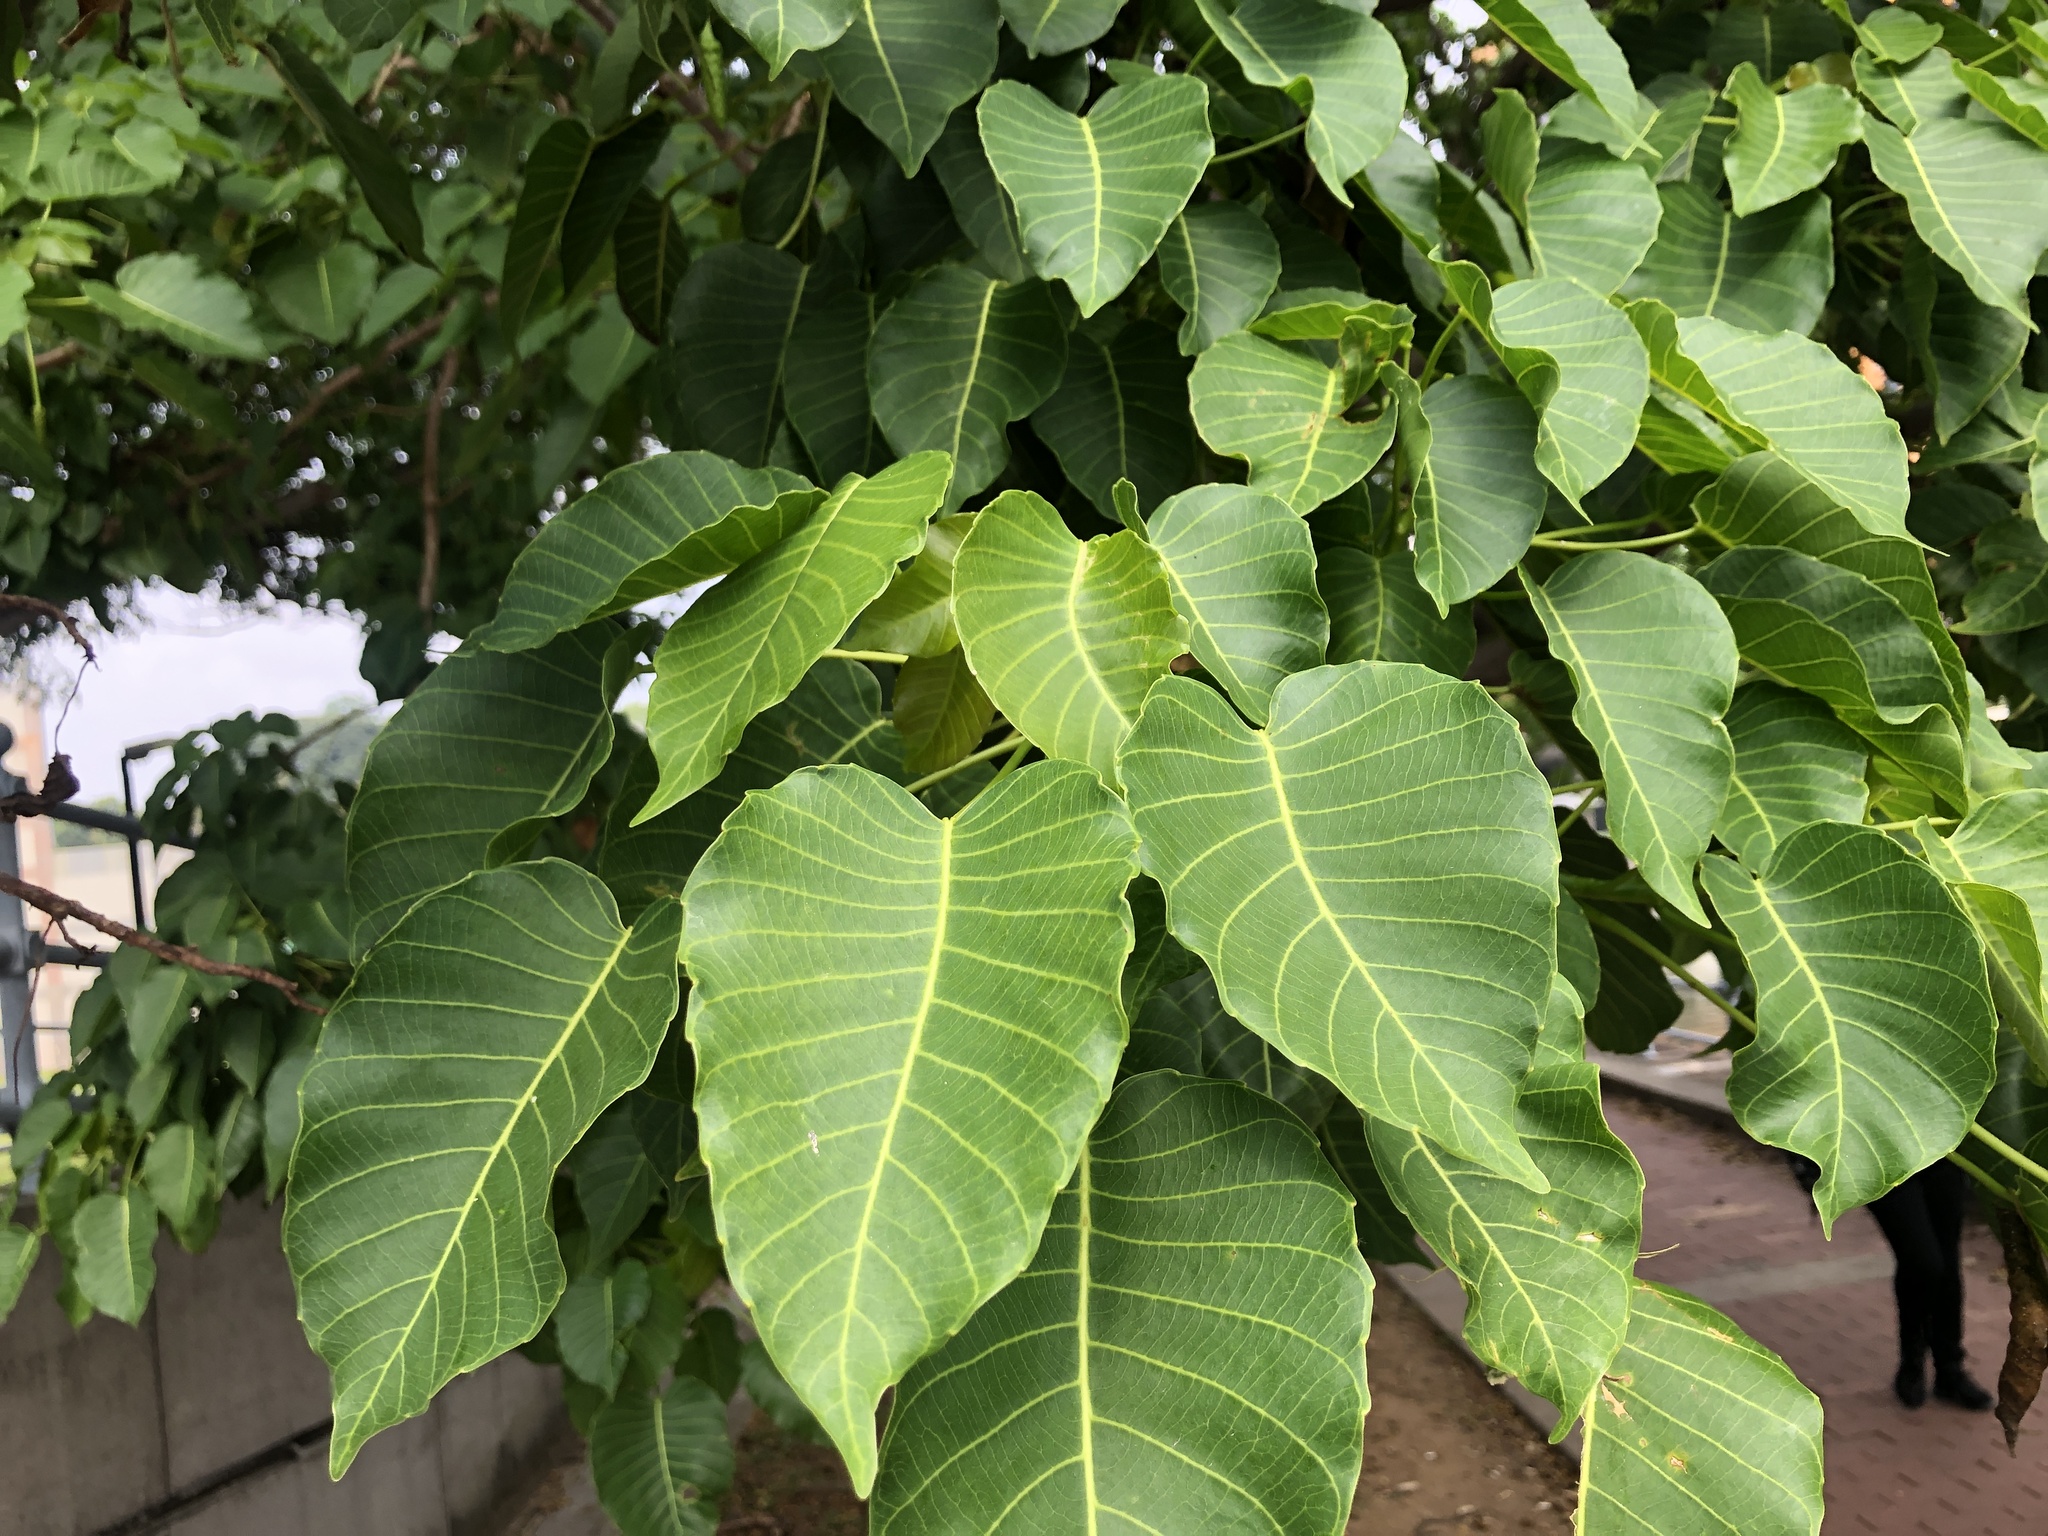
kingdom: Plantae
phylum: Tracheophyta
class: Magnoliopsida
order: Malpighiales
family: Euphorbiaceae
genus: Hura
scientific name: Hura crepitans
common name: Sandboxtree
